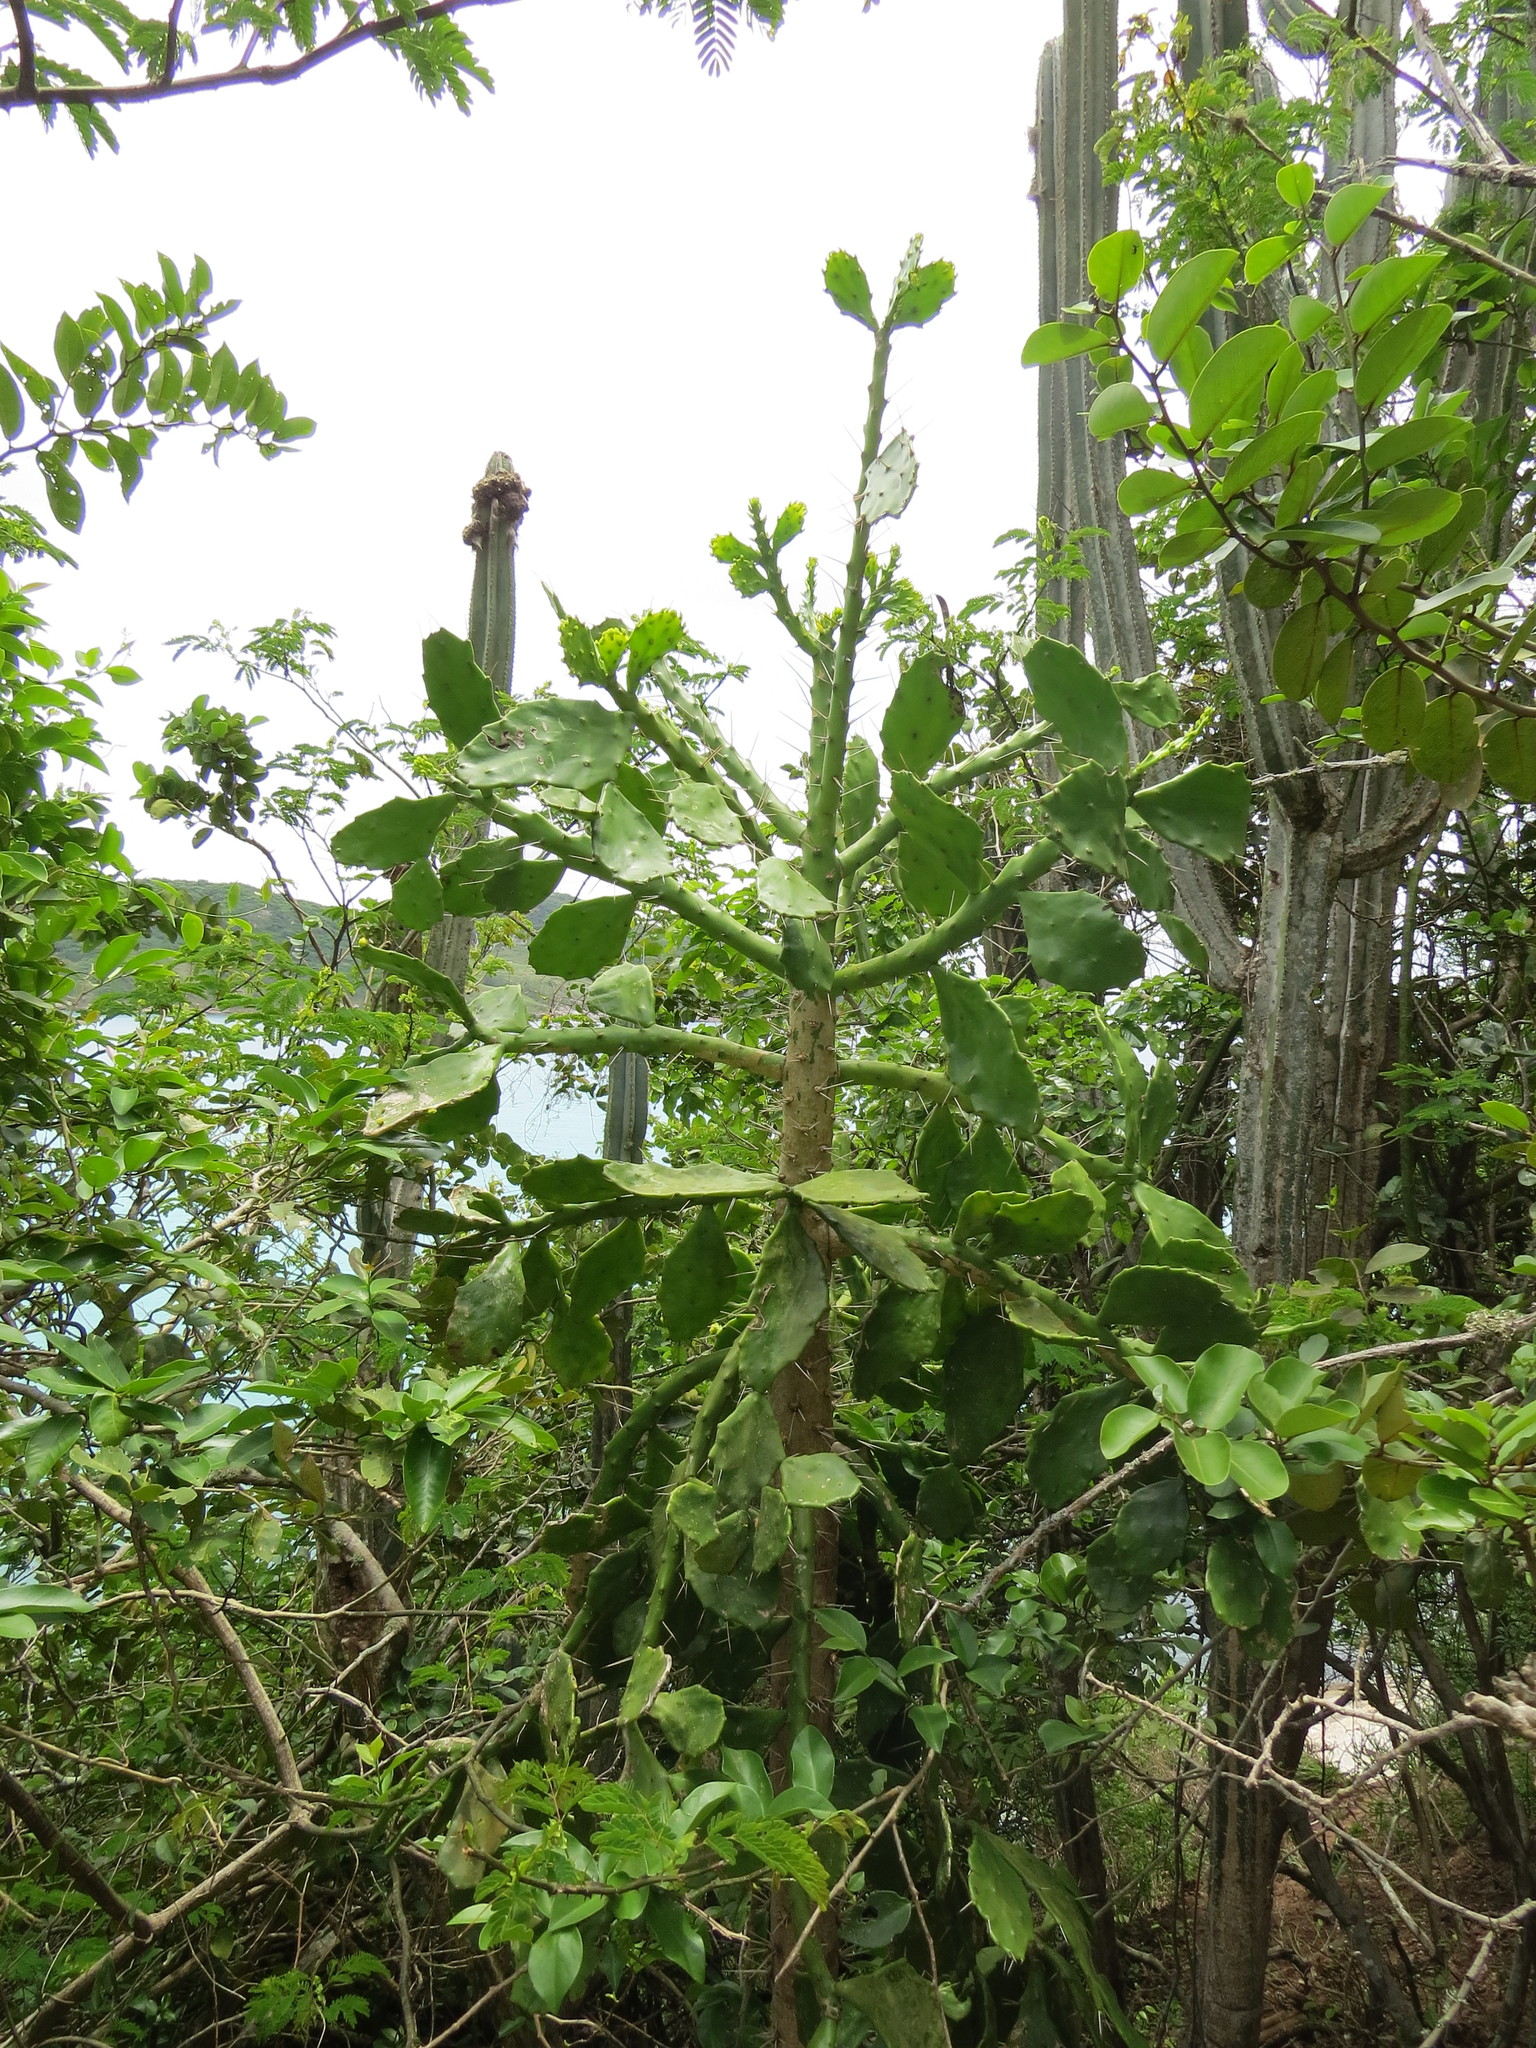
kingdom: Plantae
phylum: Tracheophyta
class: Magnoliopsida
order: Caryophyllales
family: Cactaceae
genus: Brasiliopuntia
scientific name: Brasiliopuntia brasiliensis
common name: Brazilian pricklypear
